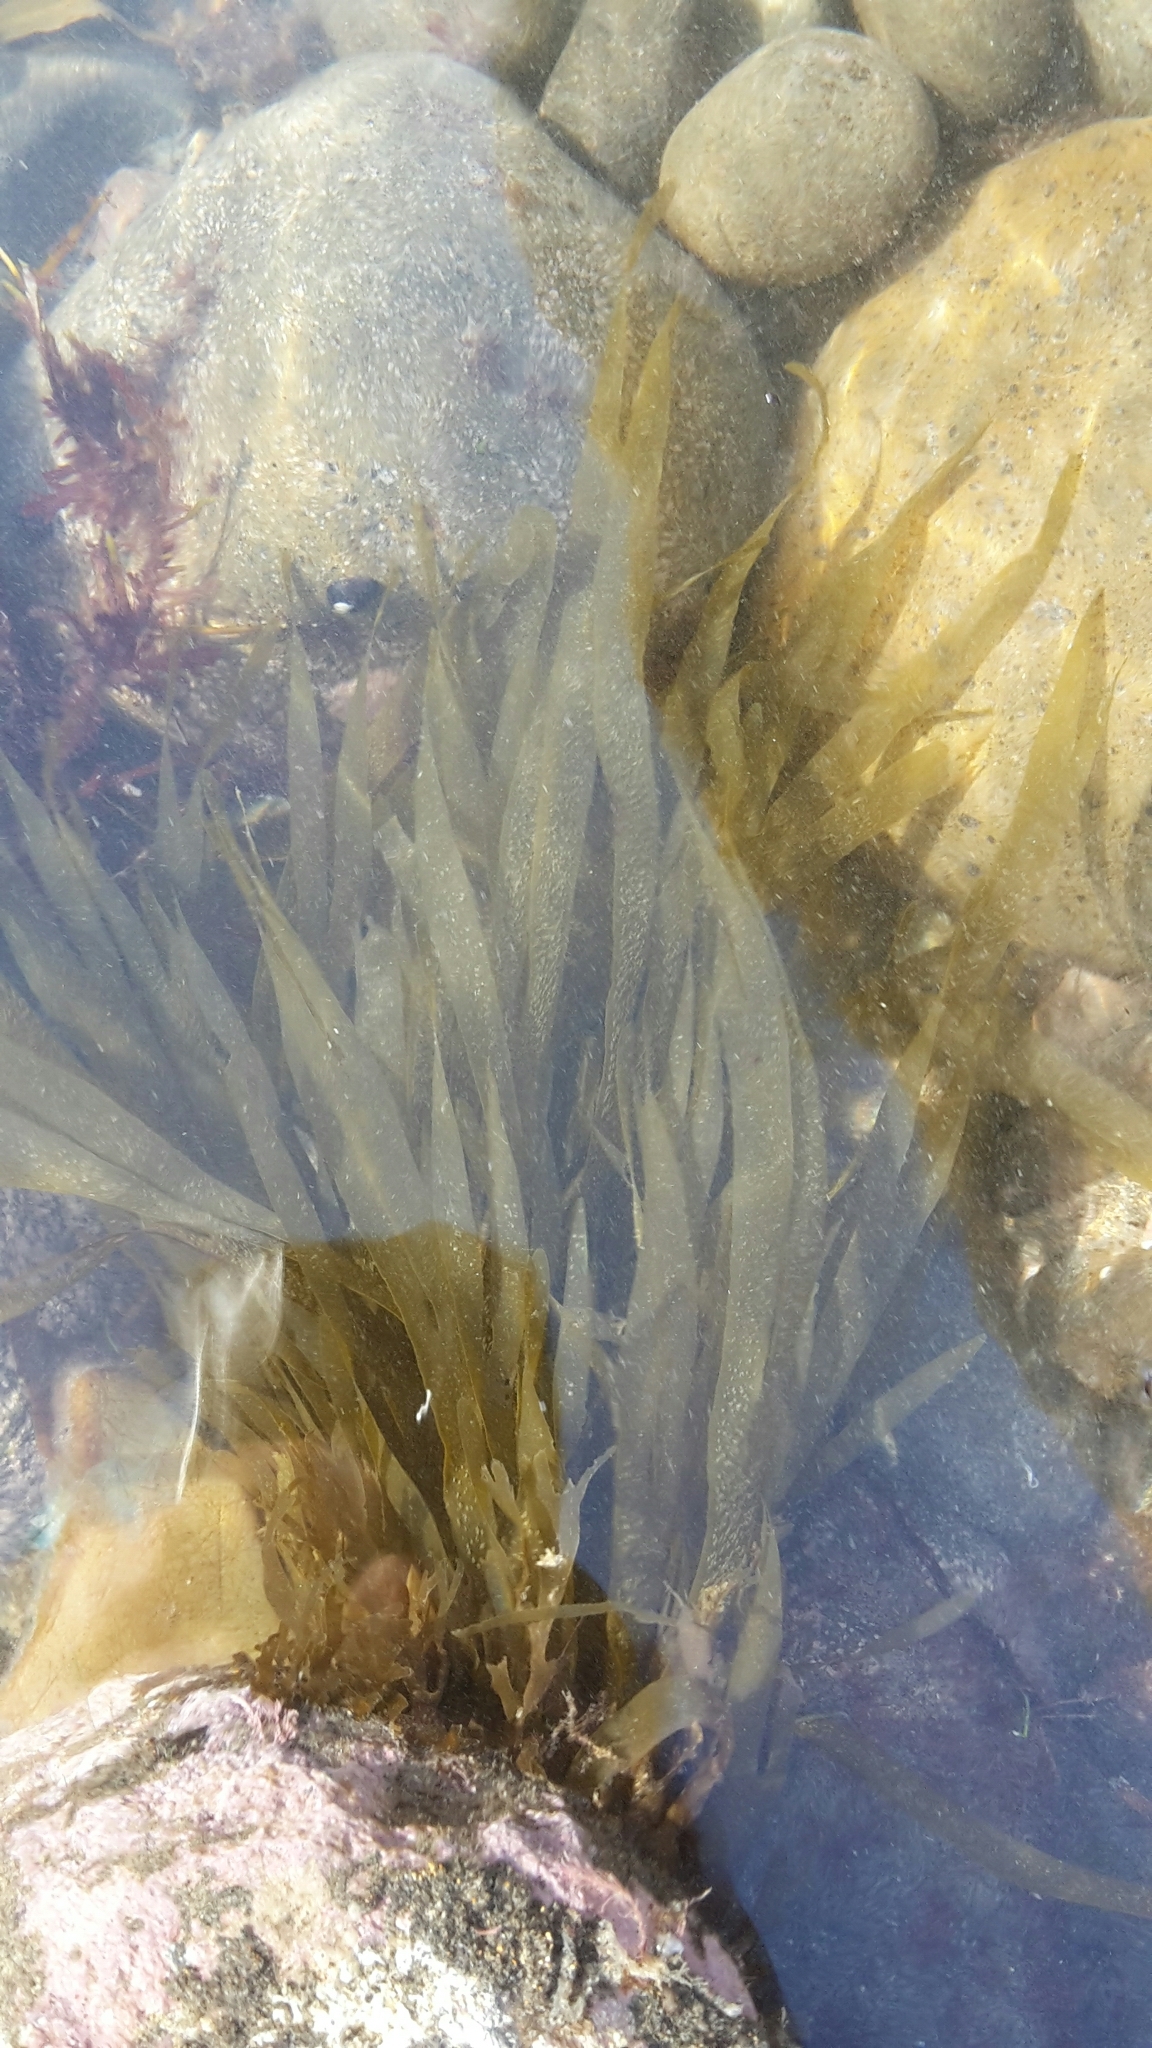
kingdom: Chromista
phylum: Ochrophyta
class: Phaeophyceae
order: Dictyotales
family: Dictyotaceae
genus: Dictyota
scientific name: Dictyota kunthii
